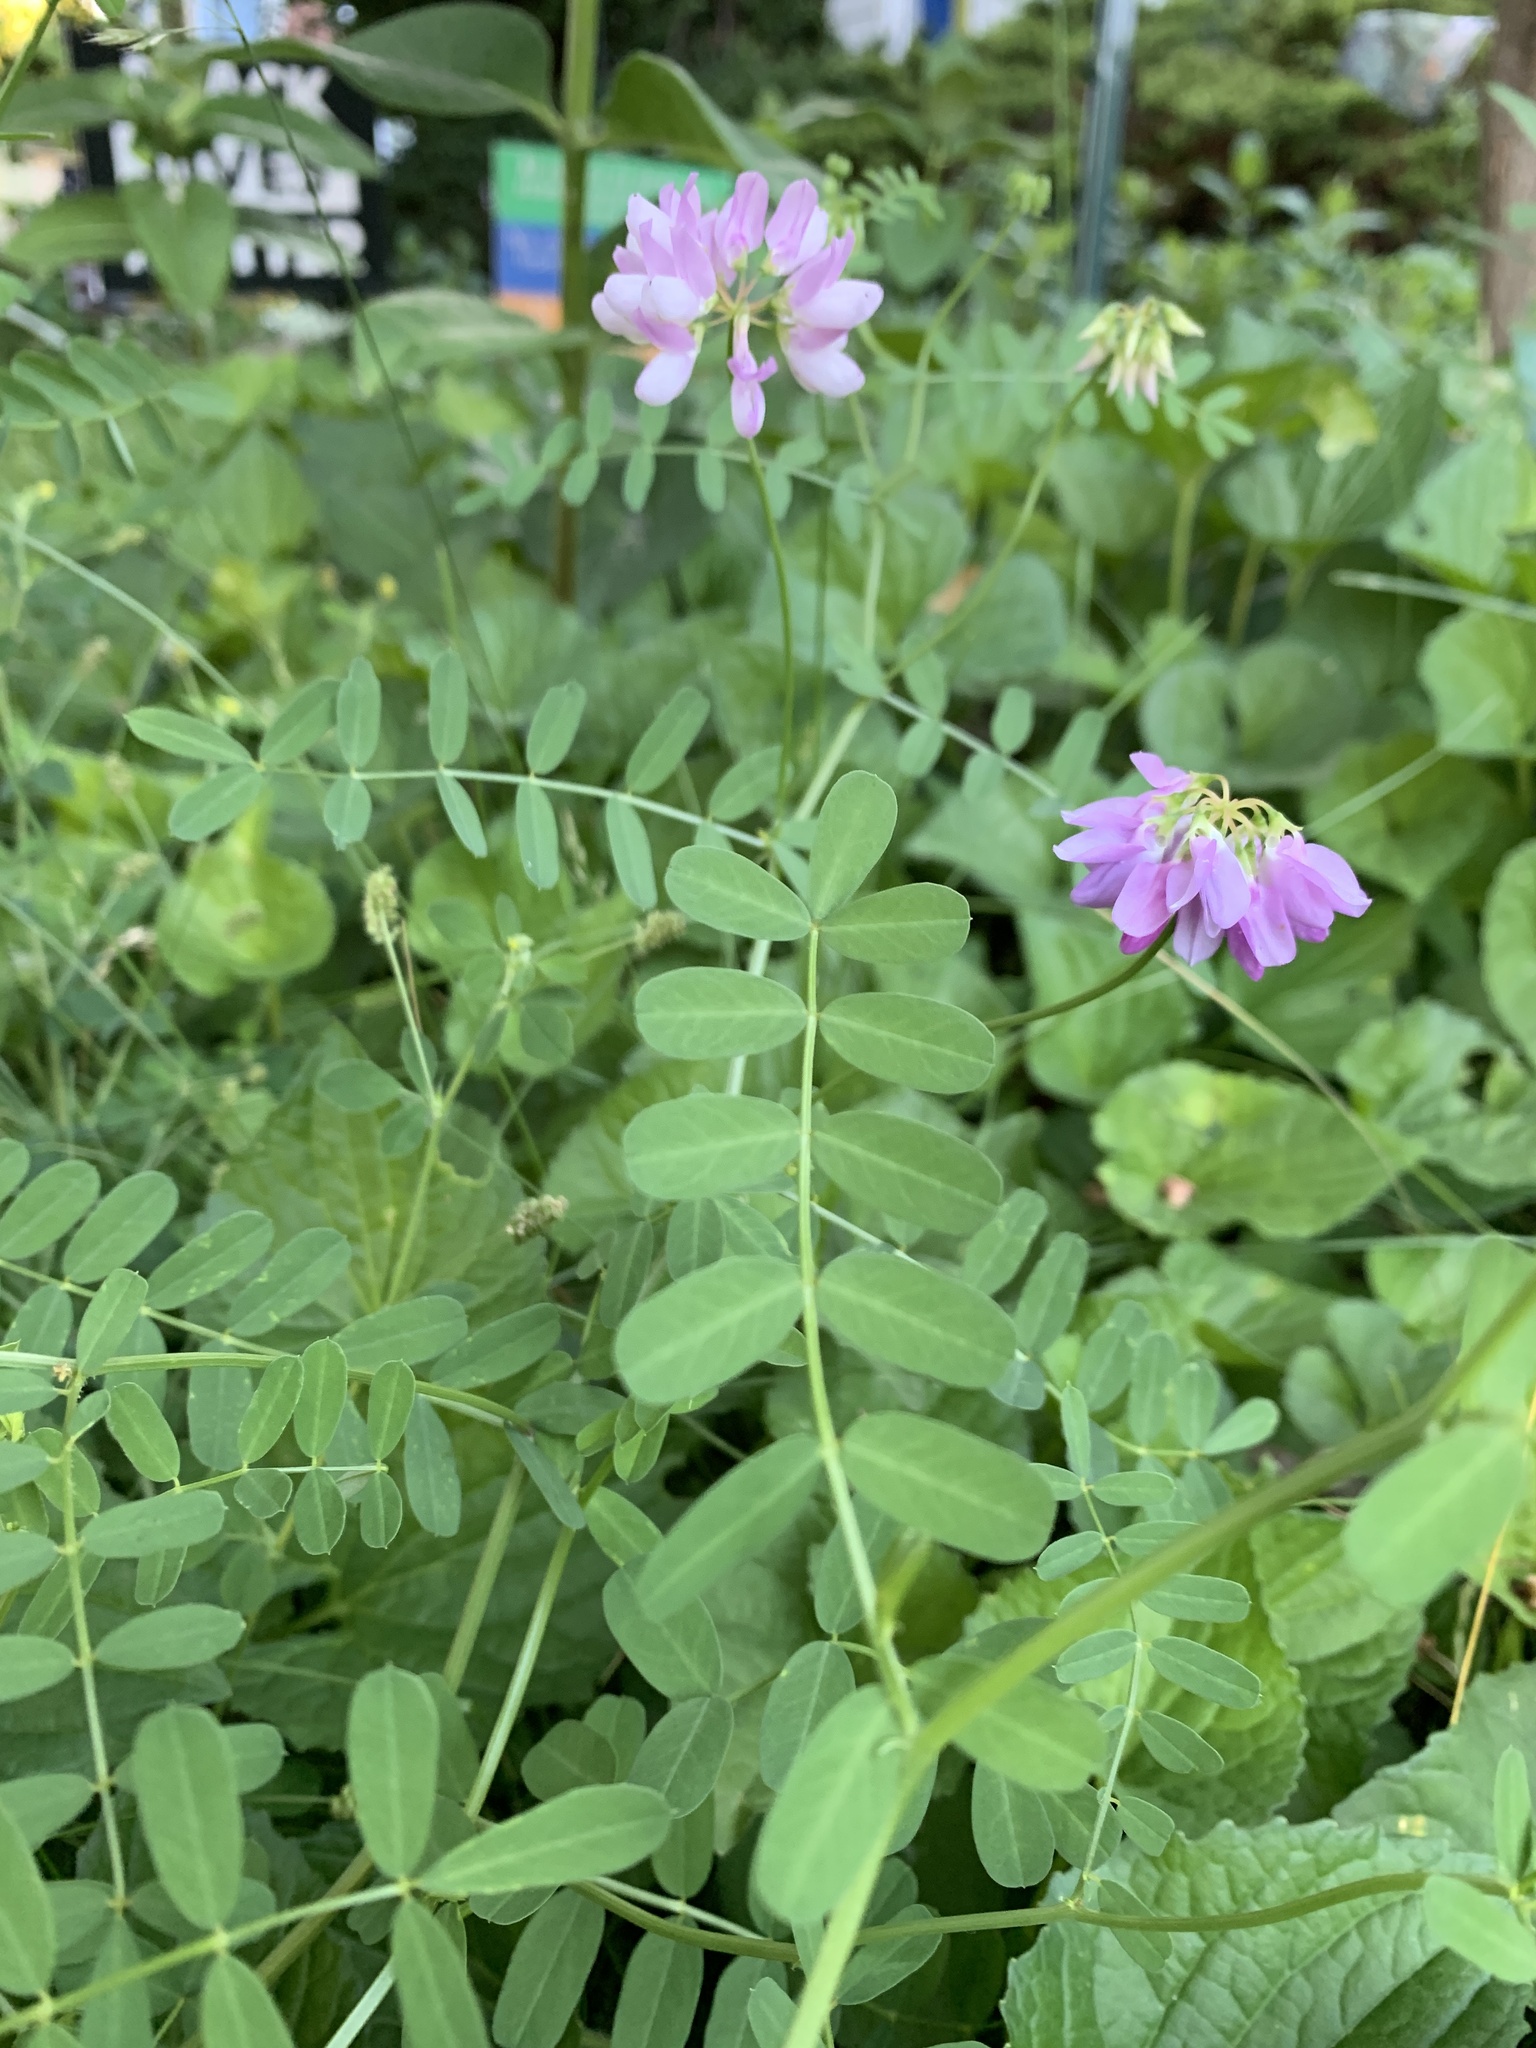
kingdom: Plantae
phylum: Tracheophyta
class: Magnoliopsida
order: Fabales
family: Fabaceae
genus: Coronilla
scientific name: Coronilla varia
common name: Crownvetch
